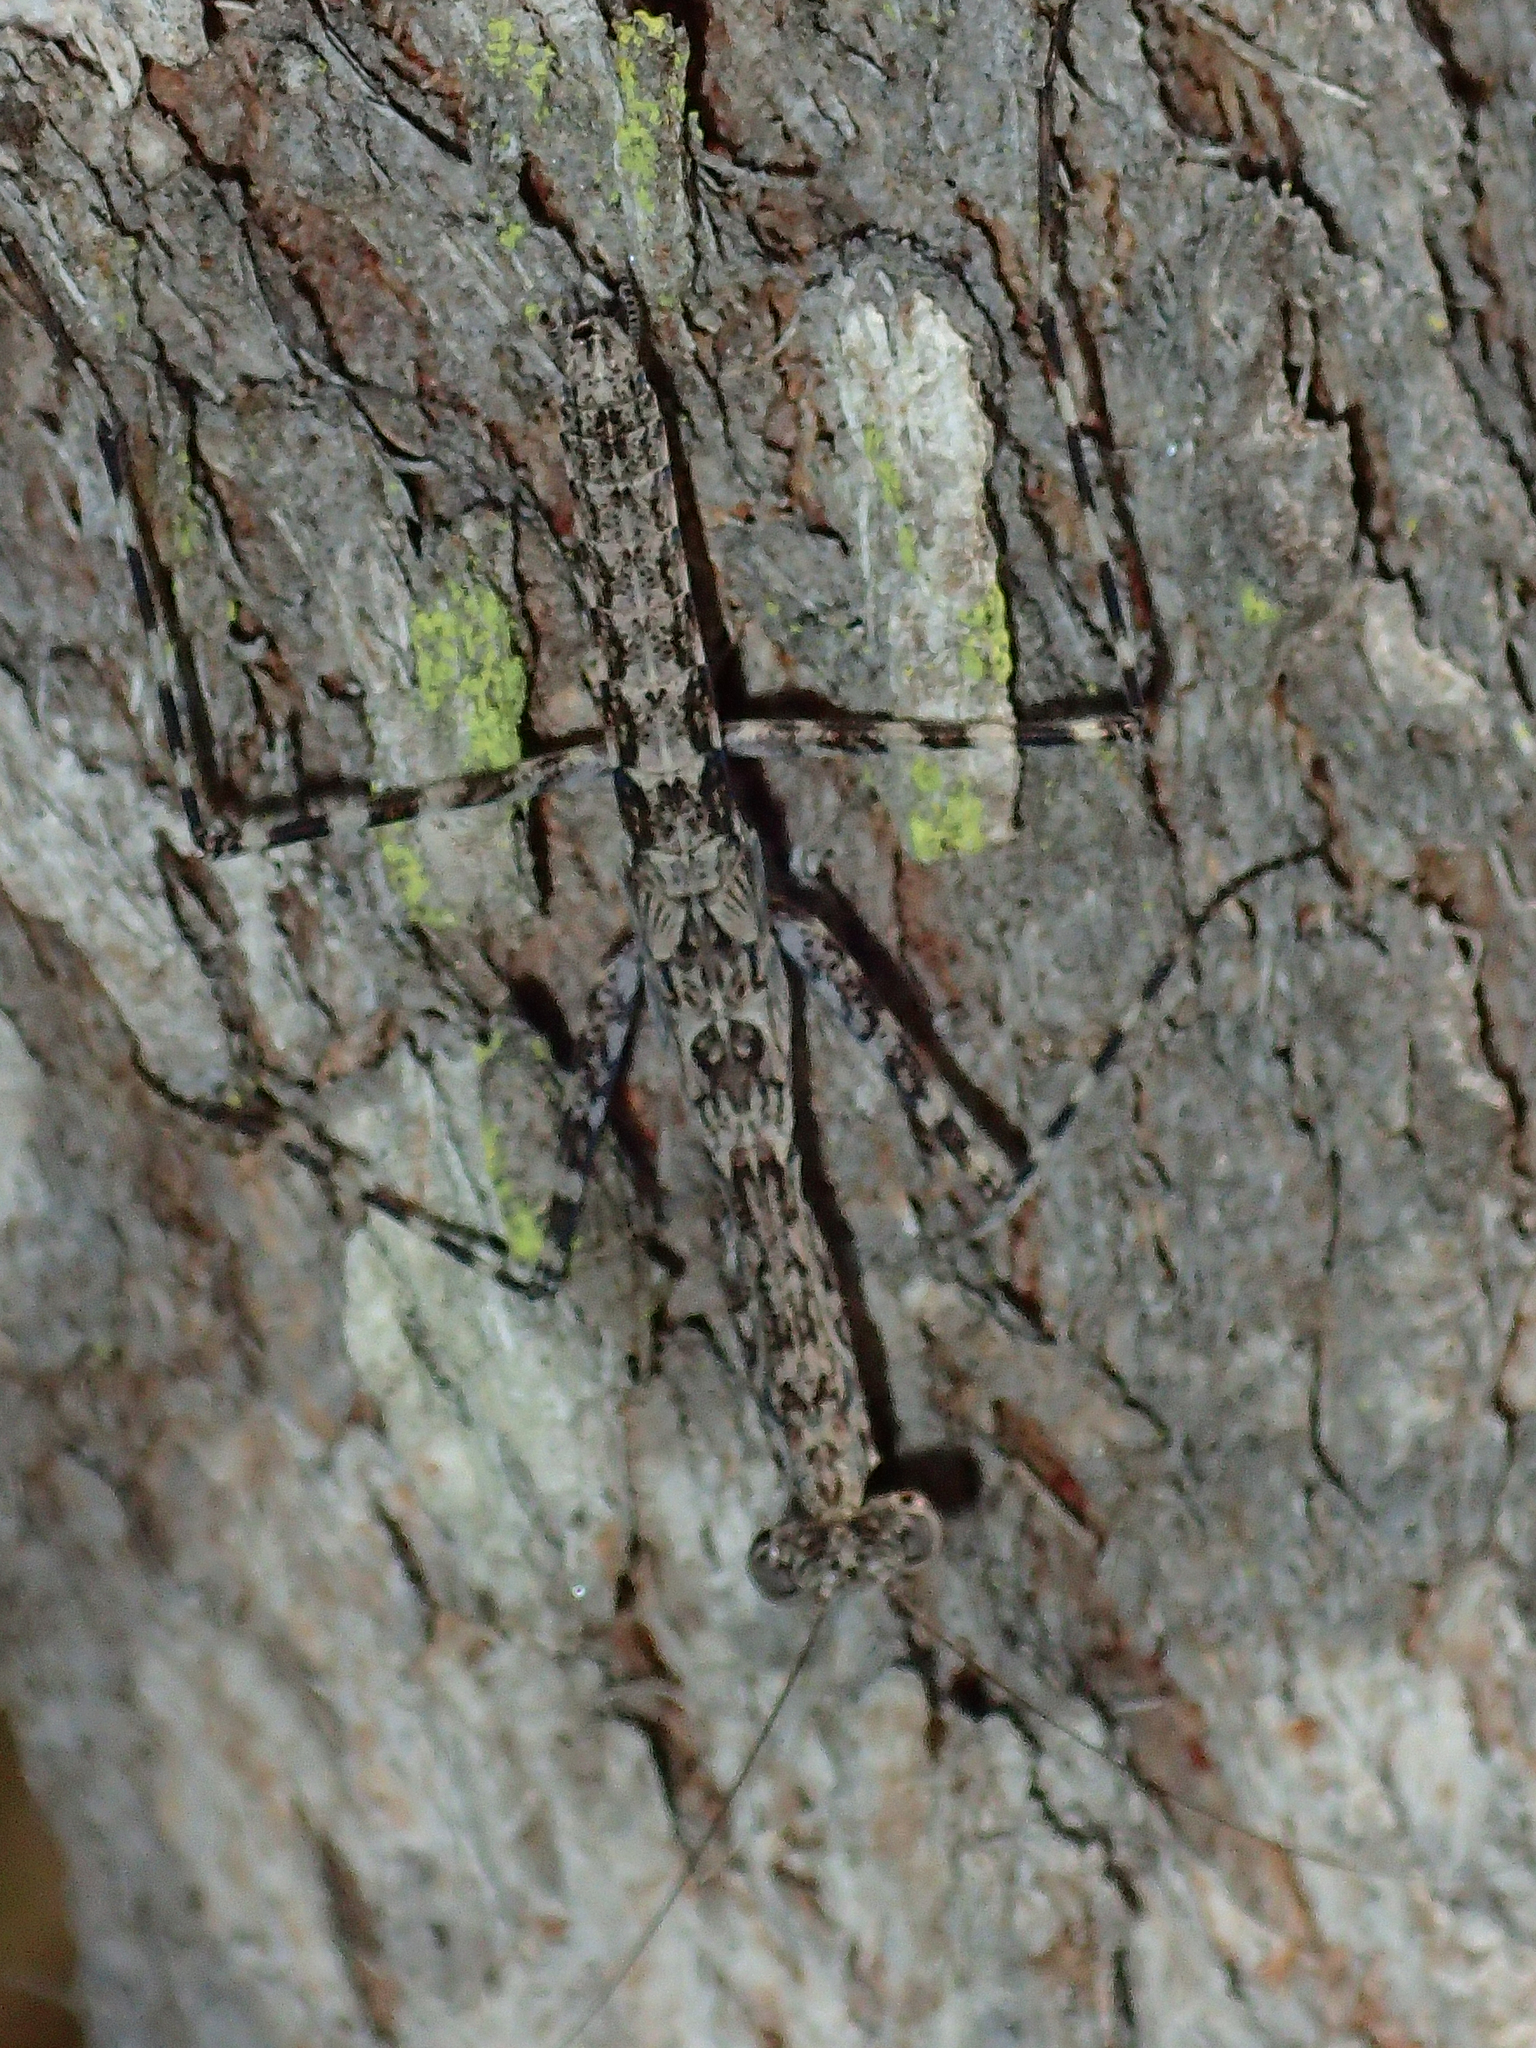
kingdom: Animalia
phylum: Arthropoda
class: Insecta
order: Mantodea
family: Nanomantidae
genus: Ciulfina
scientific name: Ciulfina biseriata
